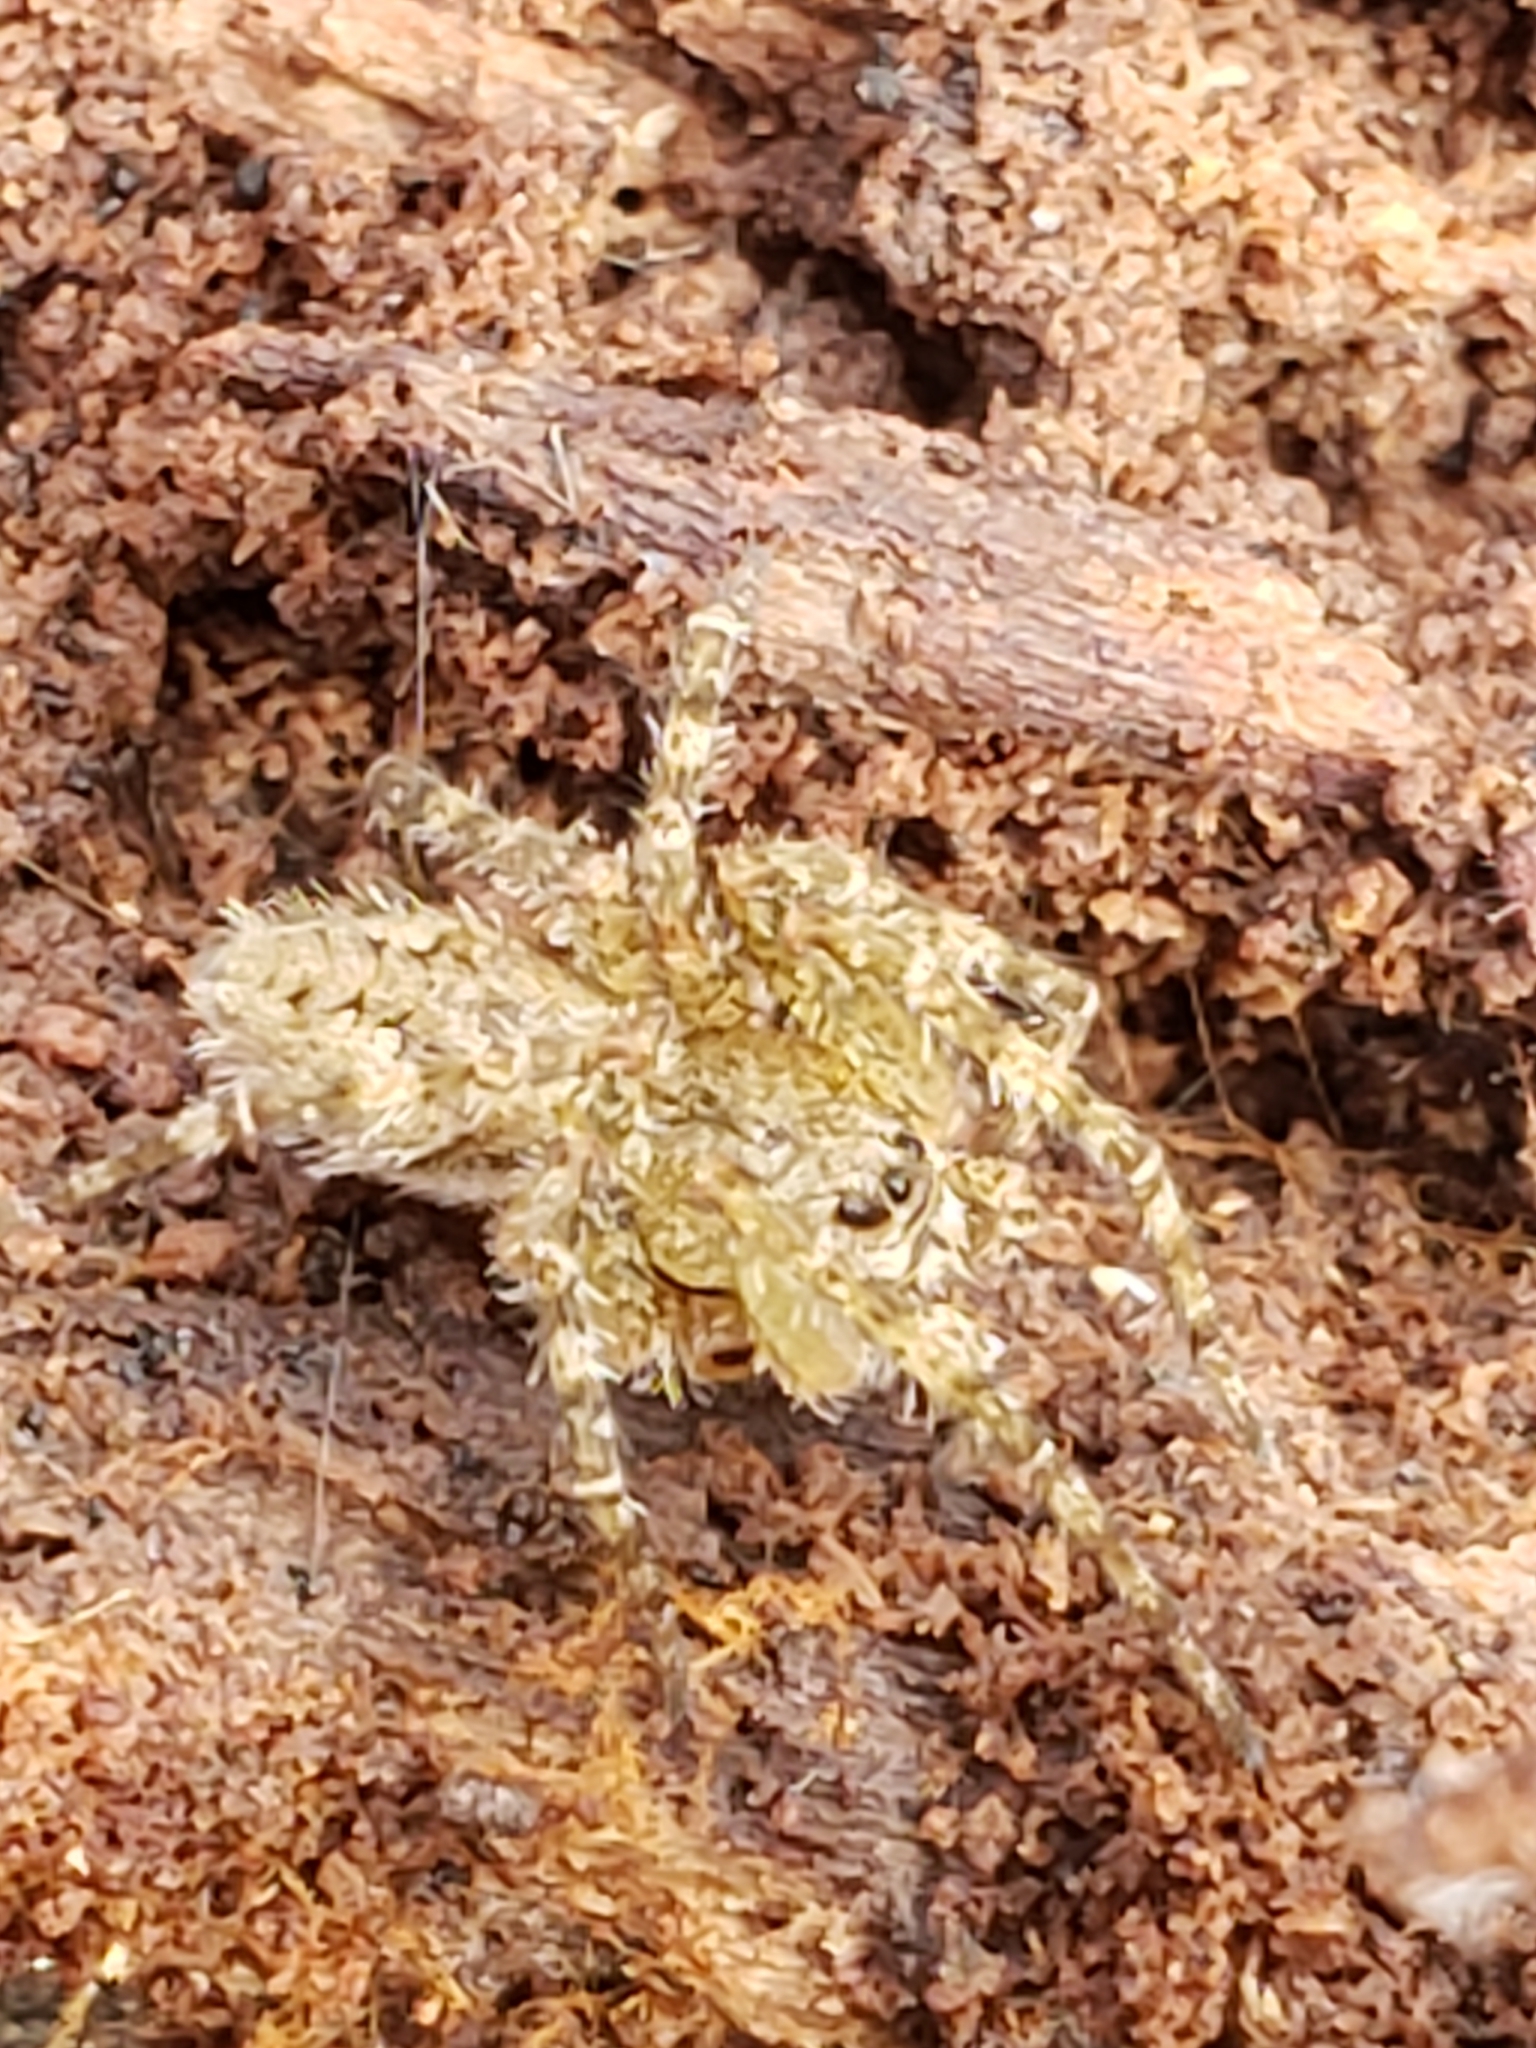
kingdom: Animalia
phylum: Arthropoda
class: Arachnida
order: Araneae
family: Pisauridae
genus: Dolomedes
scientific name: Dolomedes albineus
